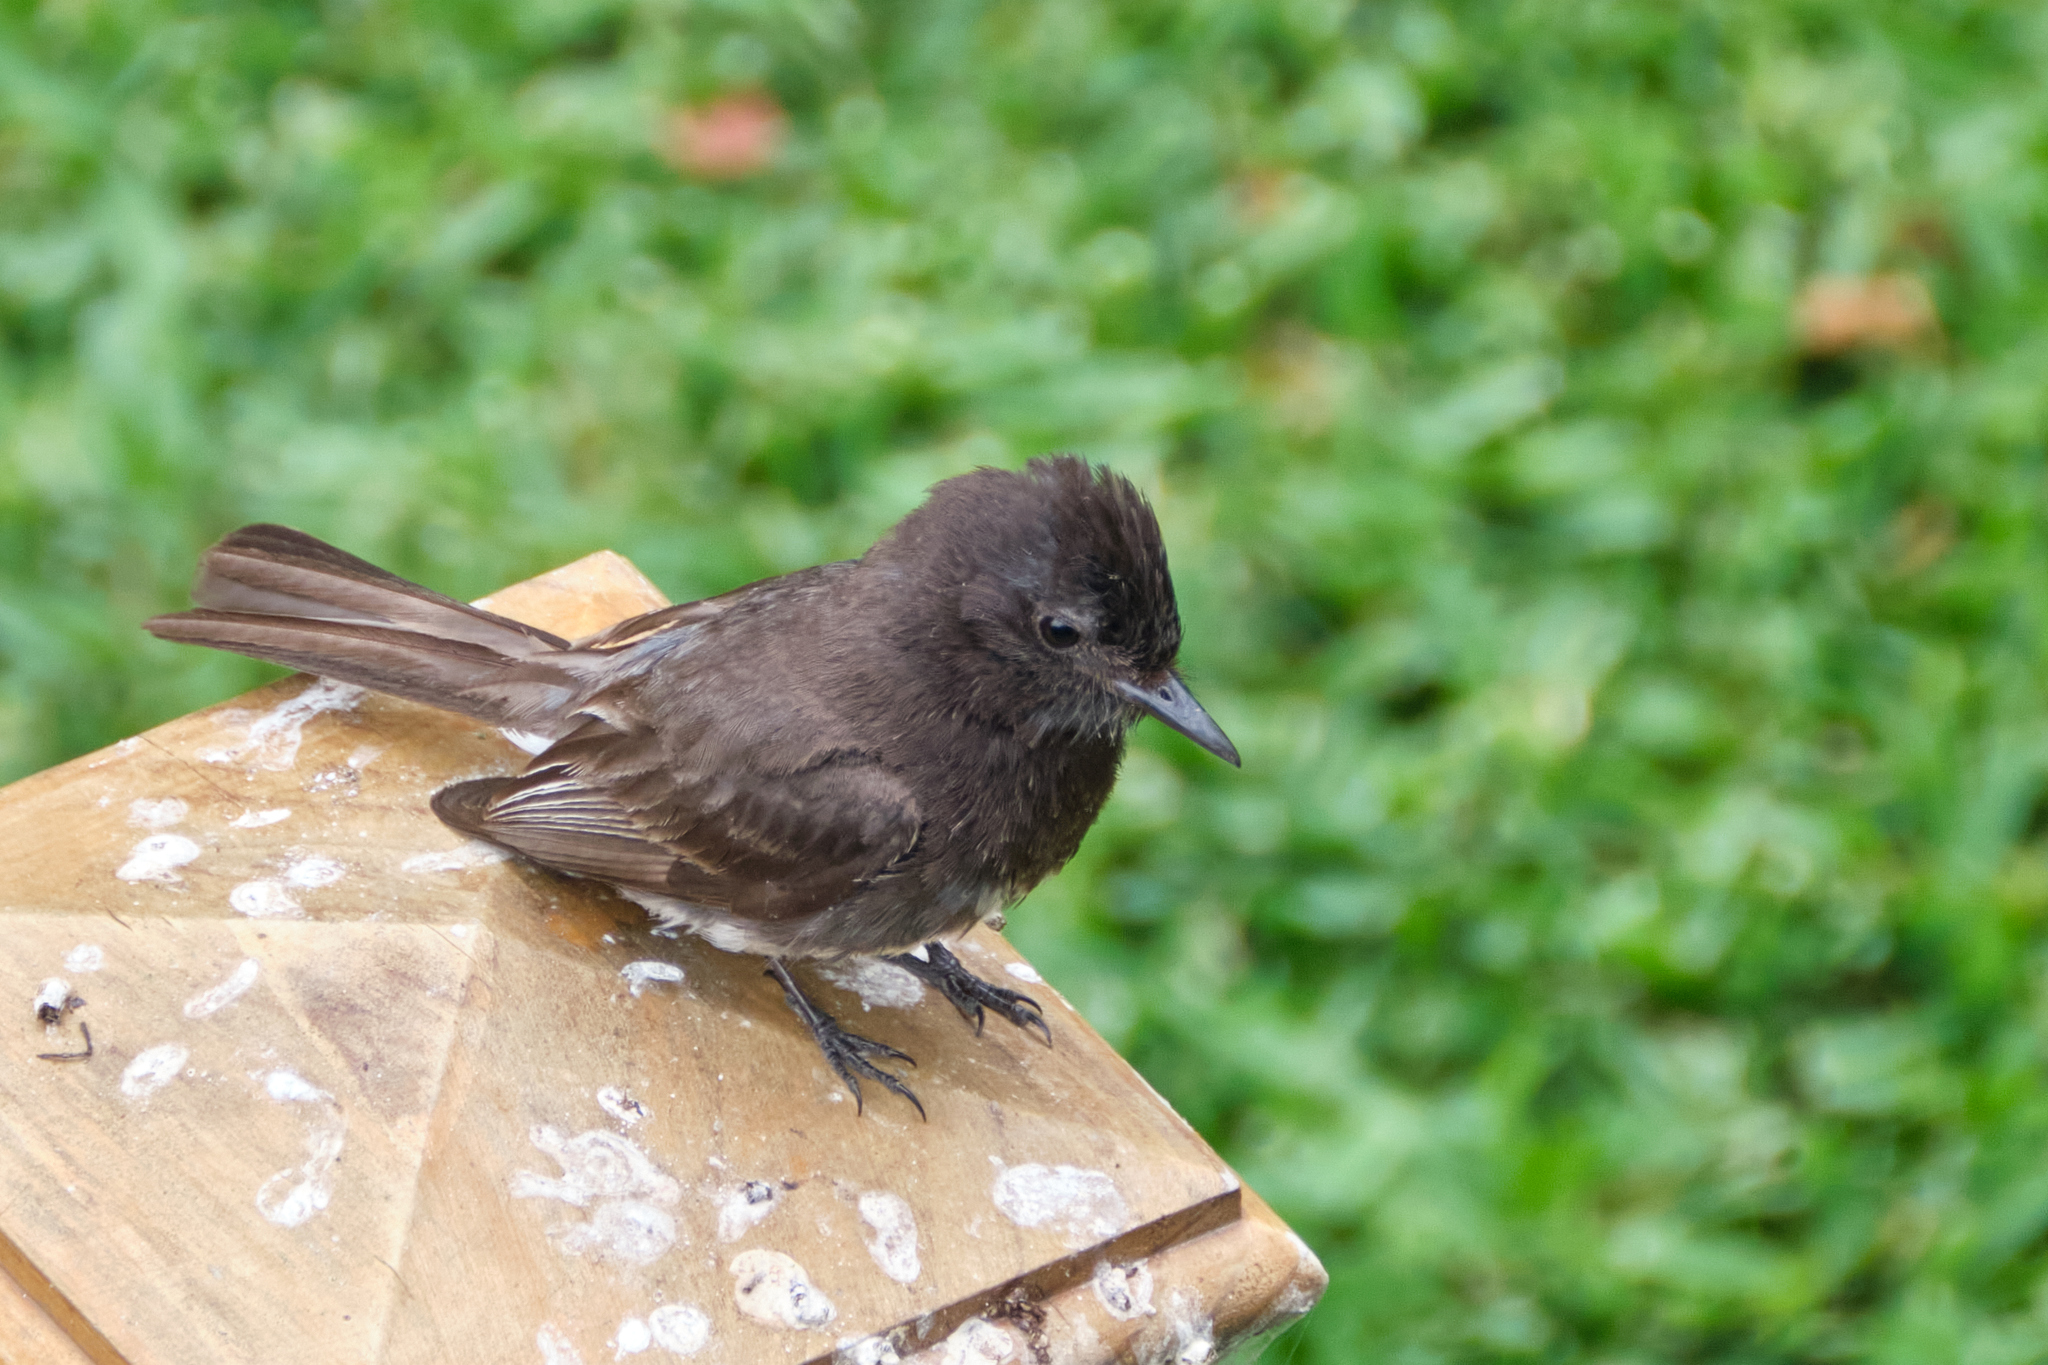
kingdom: Animalia
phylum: Chordata
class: Aves
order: Passeriformes
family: Tyrannidae
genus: Sayornis
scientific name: Sayornis nigricans
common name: Black phoebe
